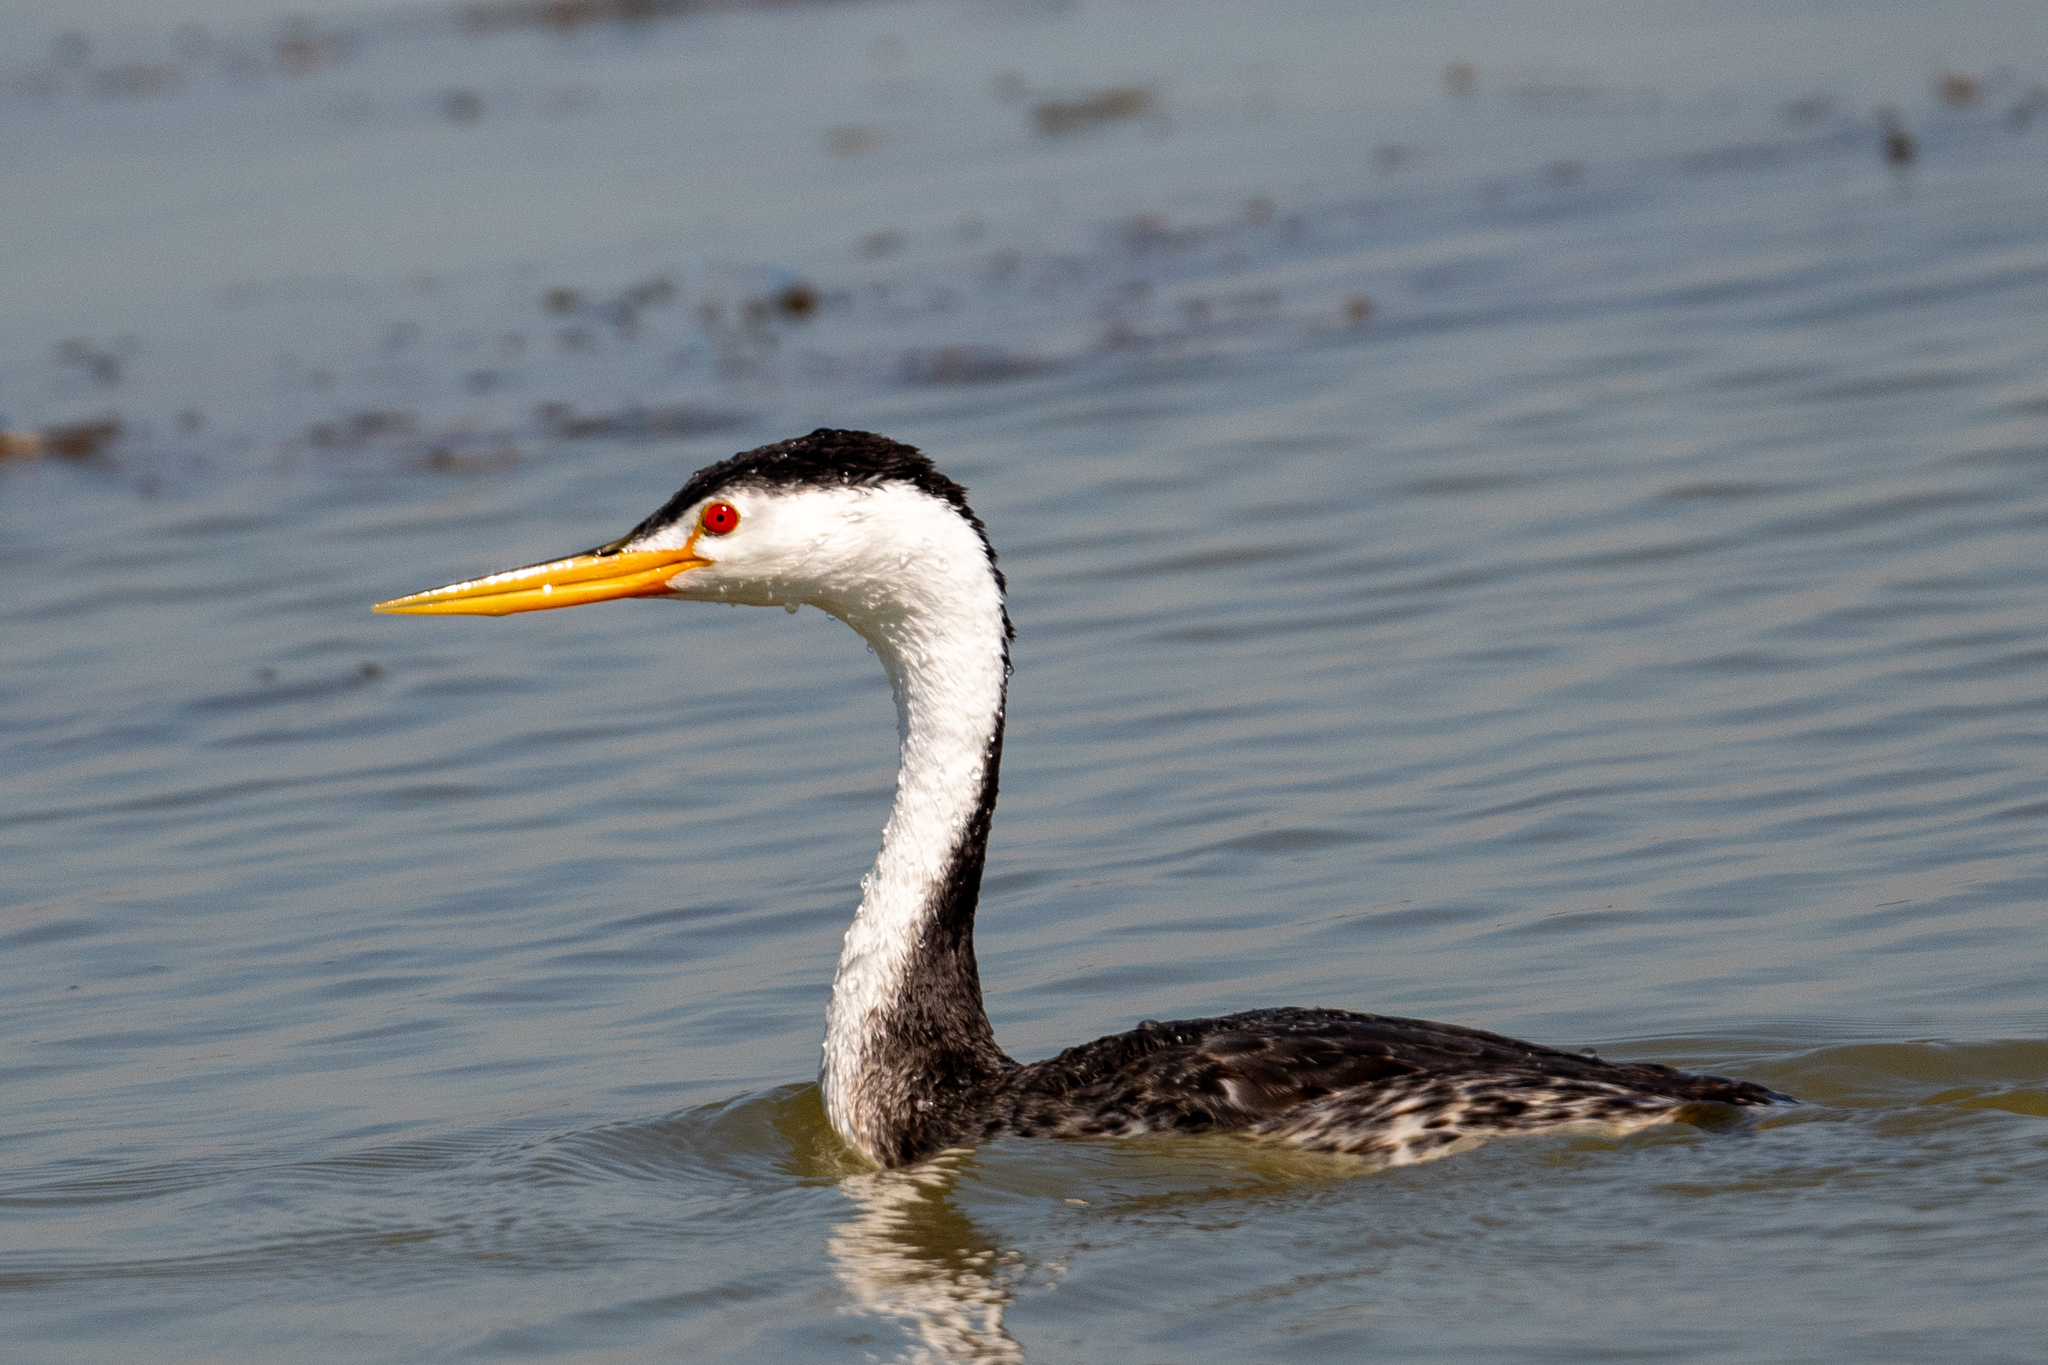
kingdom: Animalia
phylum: Chordata
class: Aves
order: Podicipediformes
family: Podicipedidae
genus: Aechmophorus
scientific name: Aechmophorus clarkii
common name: Clark's grebe
